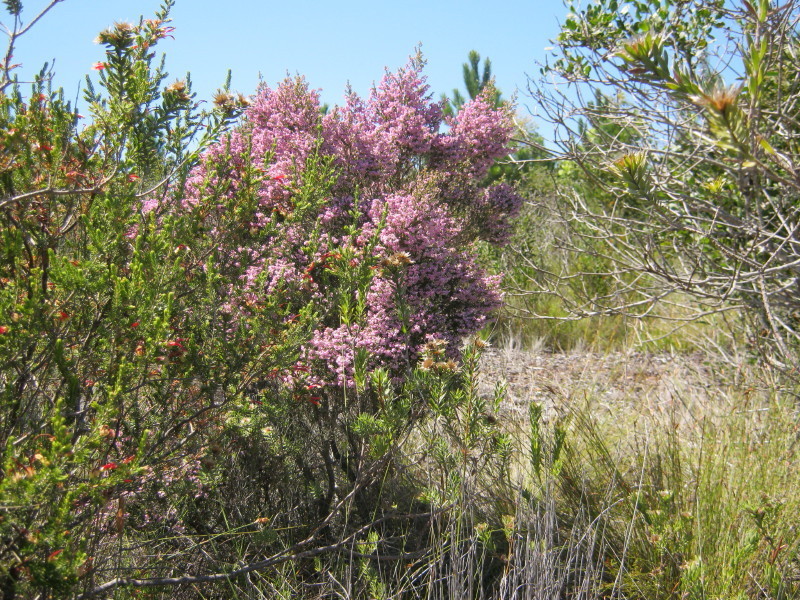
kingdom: Plantae
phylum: Tracheophyta
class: Magnoliopsida
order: Ericales
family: Ericaceae
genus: Erica
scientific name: Erica canaliculata
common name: Hairy grey heather
